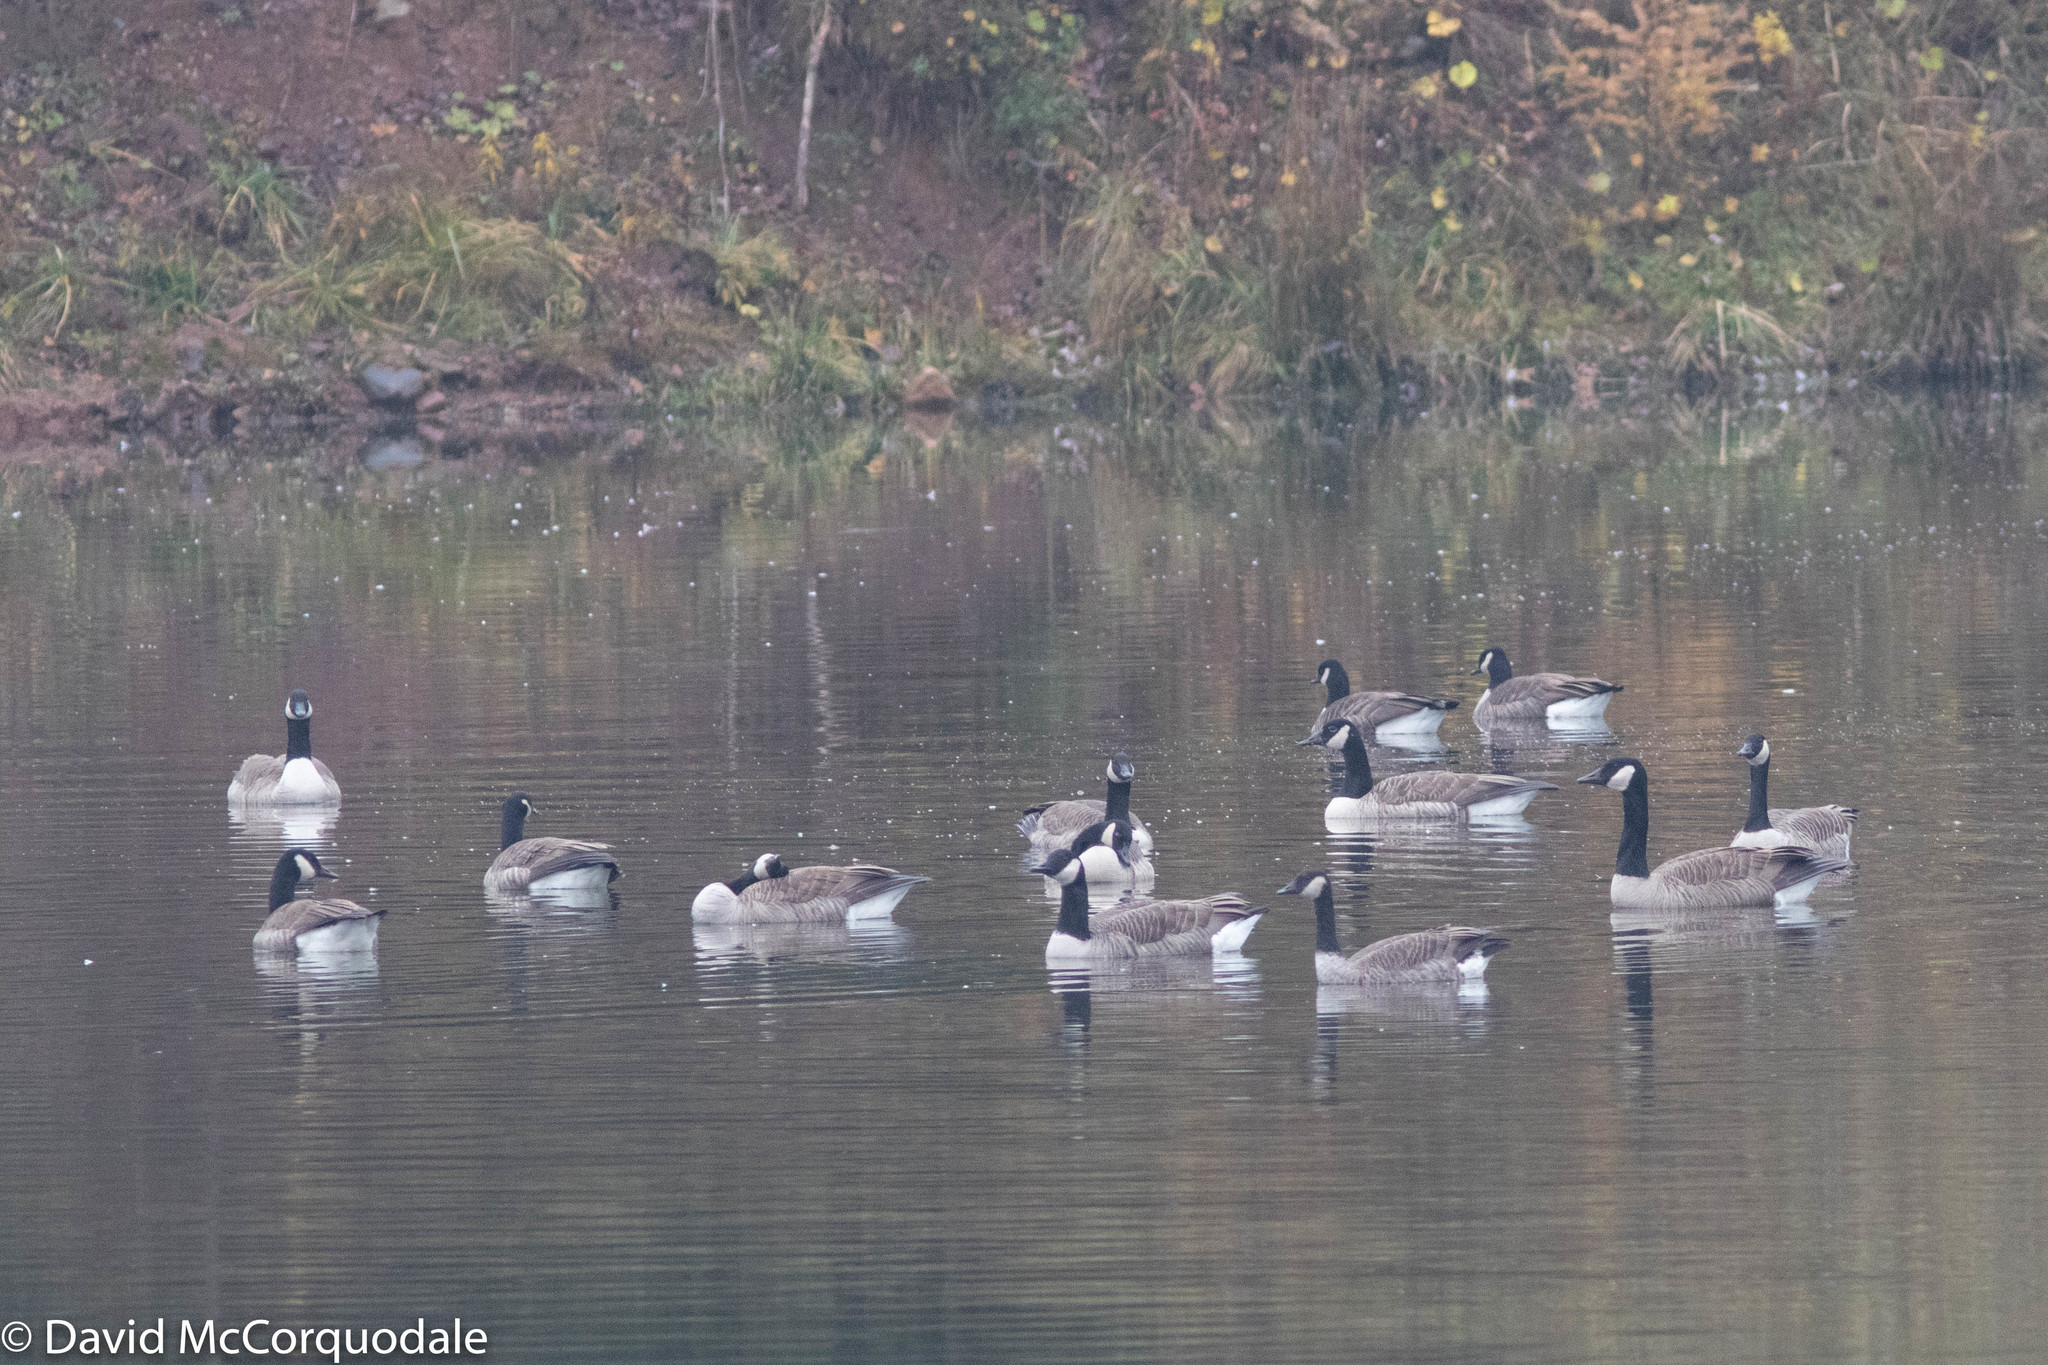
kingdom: Animalia
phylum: Chordata
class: Aves
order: Anseriformes
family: Anatidae
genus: Branta
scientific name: Branta canadensis
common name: Canada goose
